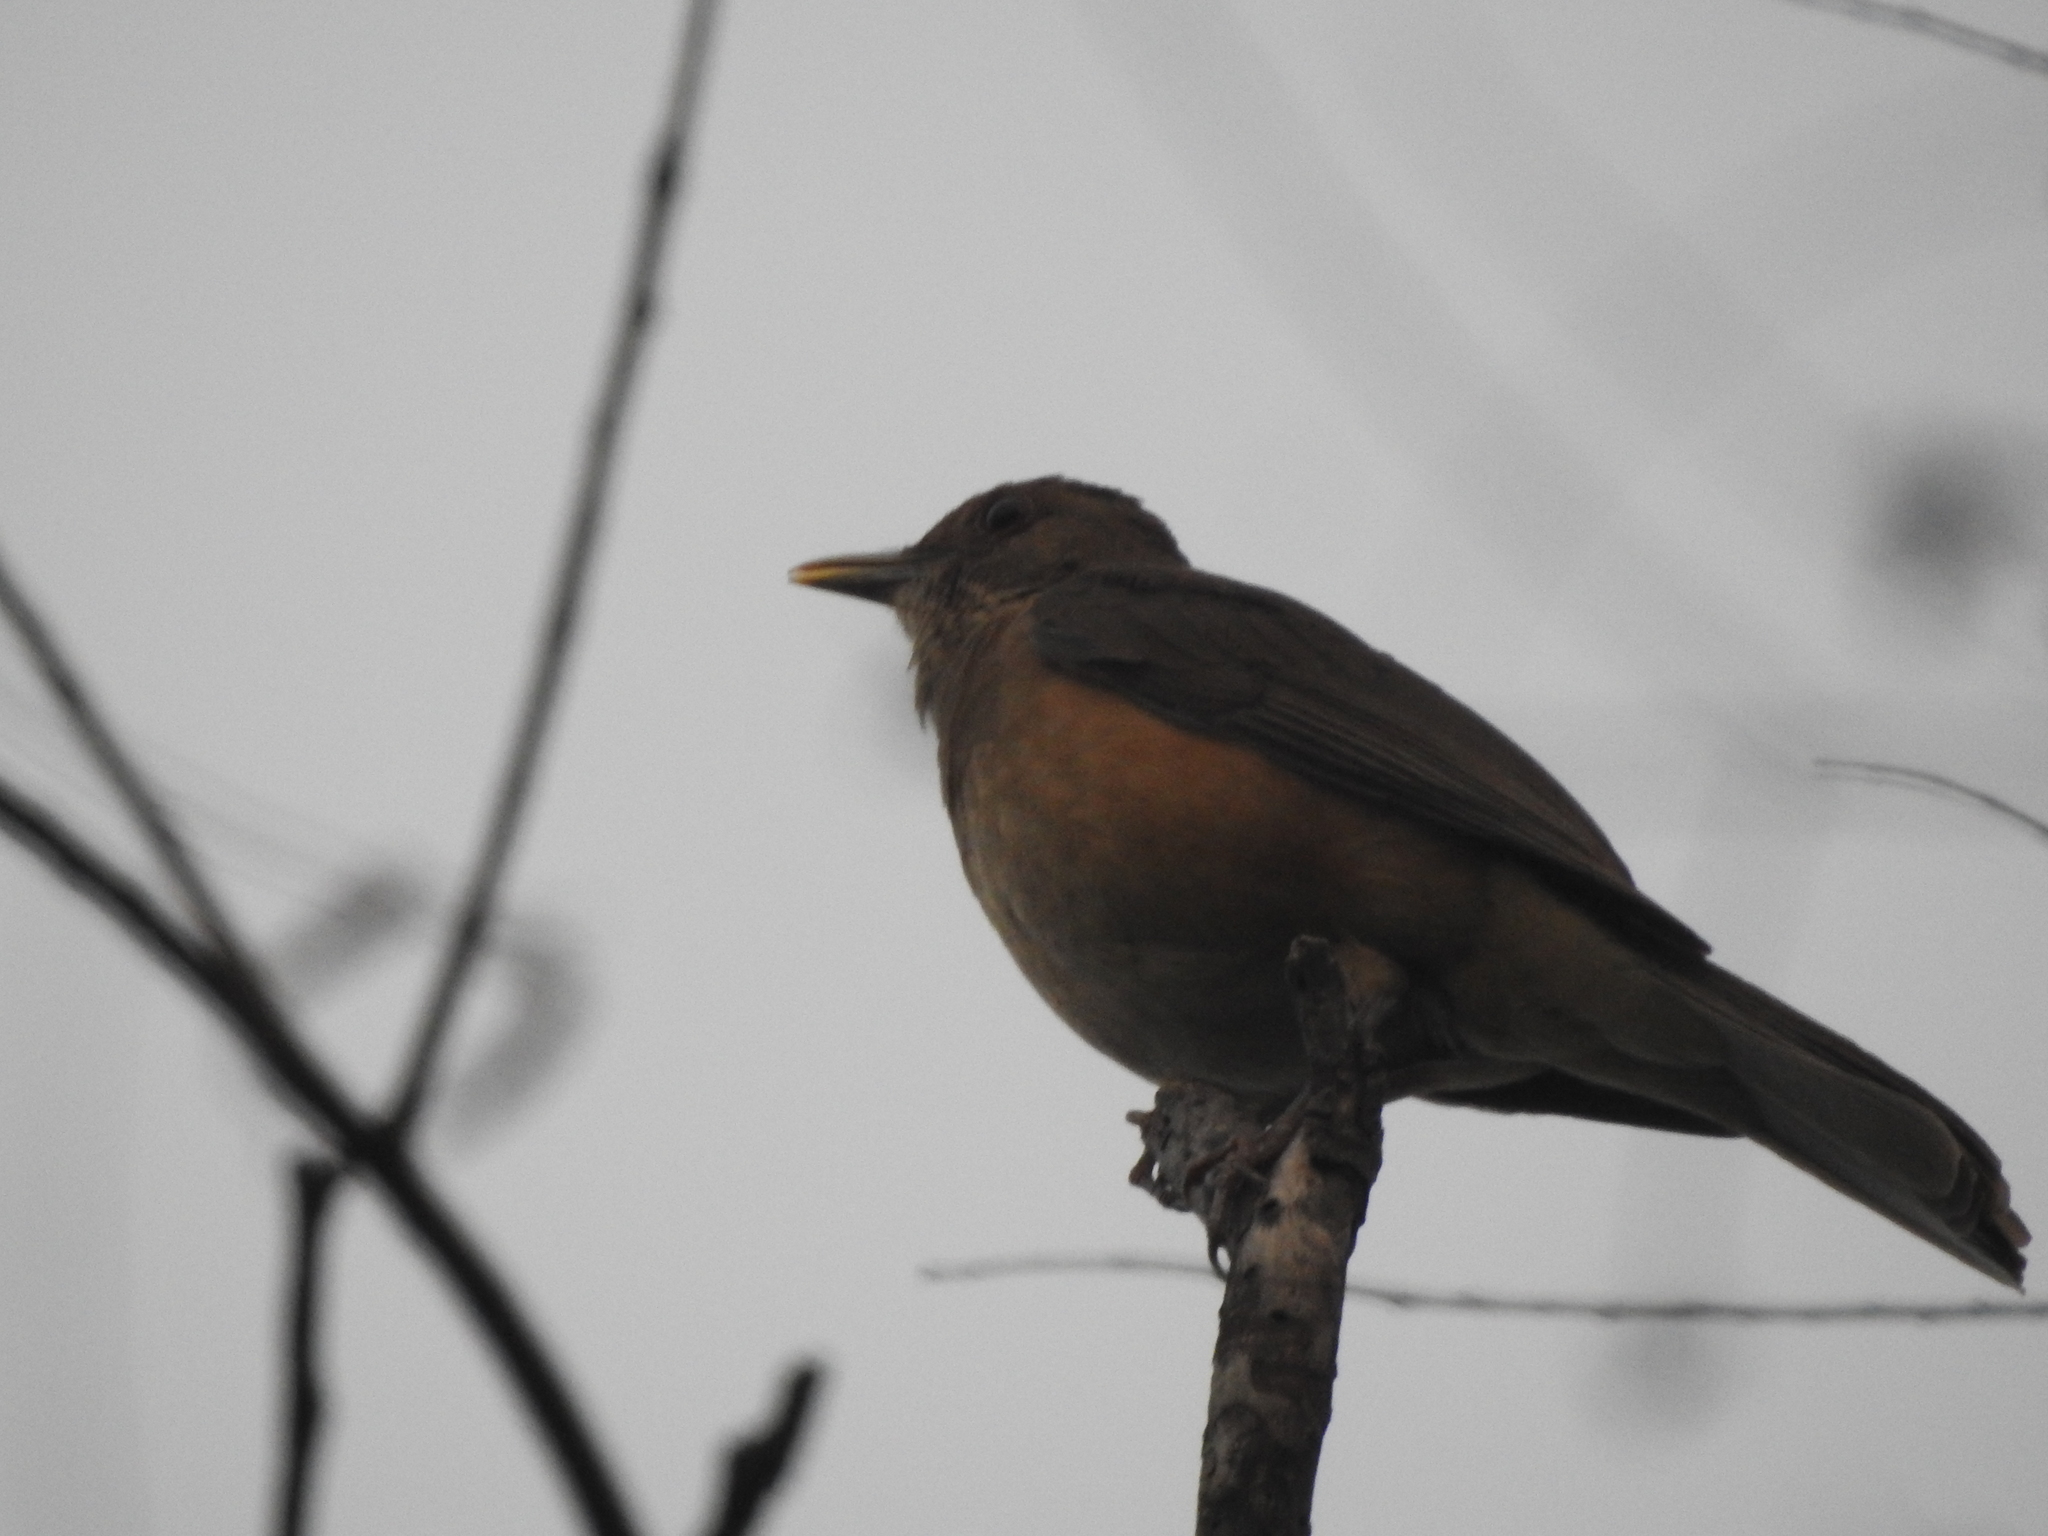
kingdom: Animalia
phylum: Chordata
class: Aves
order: Passeriformes
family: Turdidae
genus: Turdus
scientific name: Turdus grayi
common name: Clay-colored thrush
